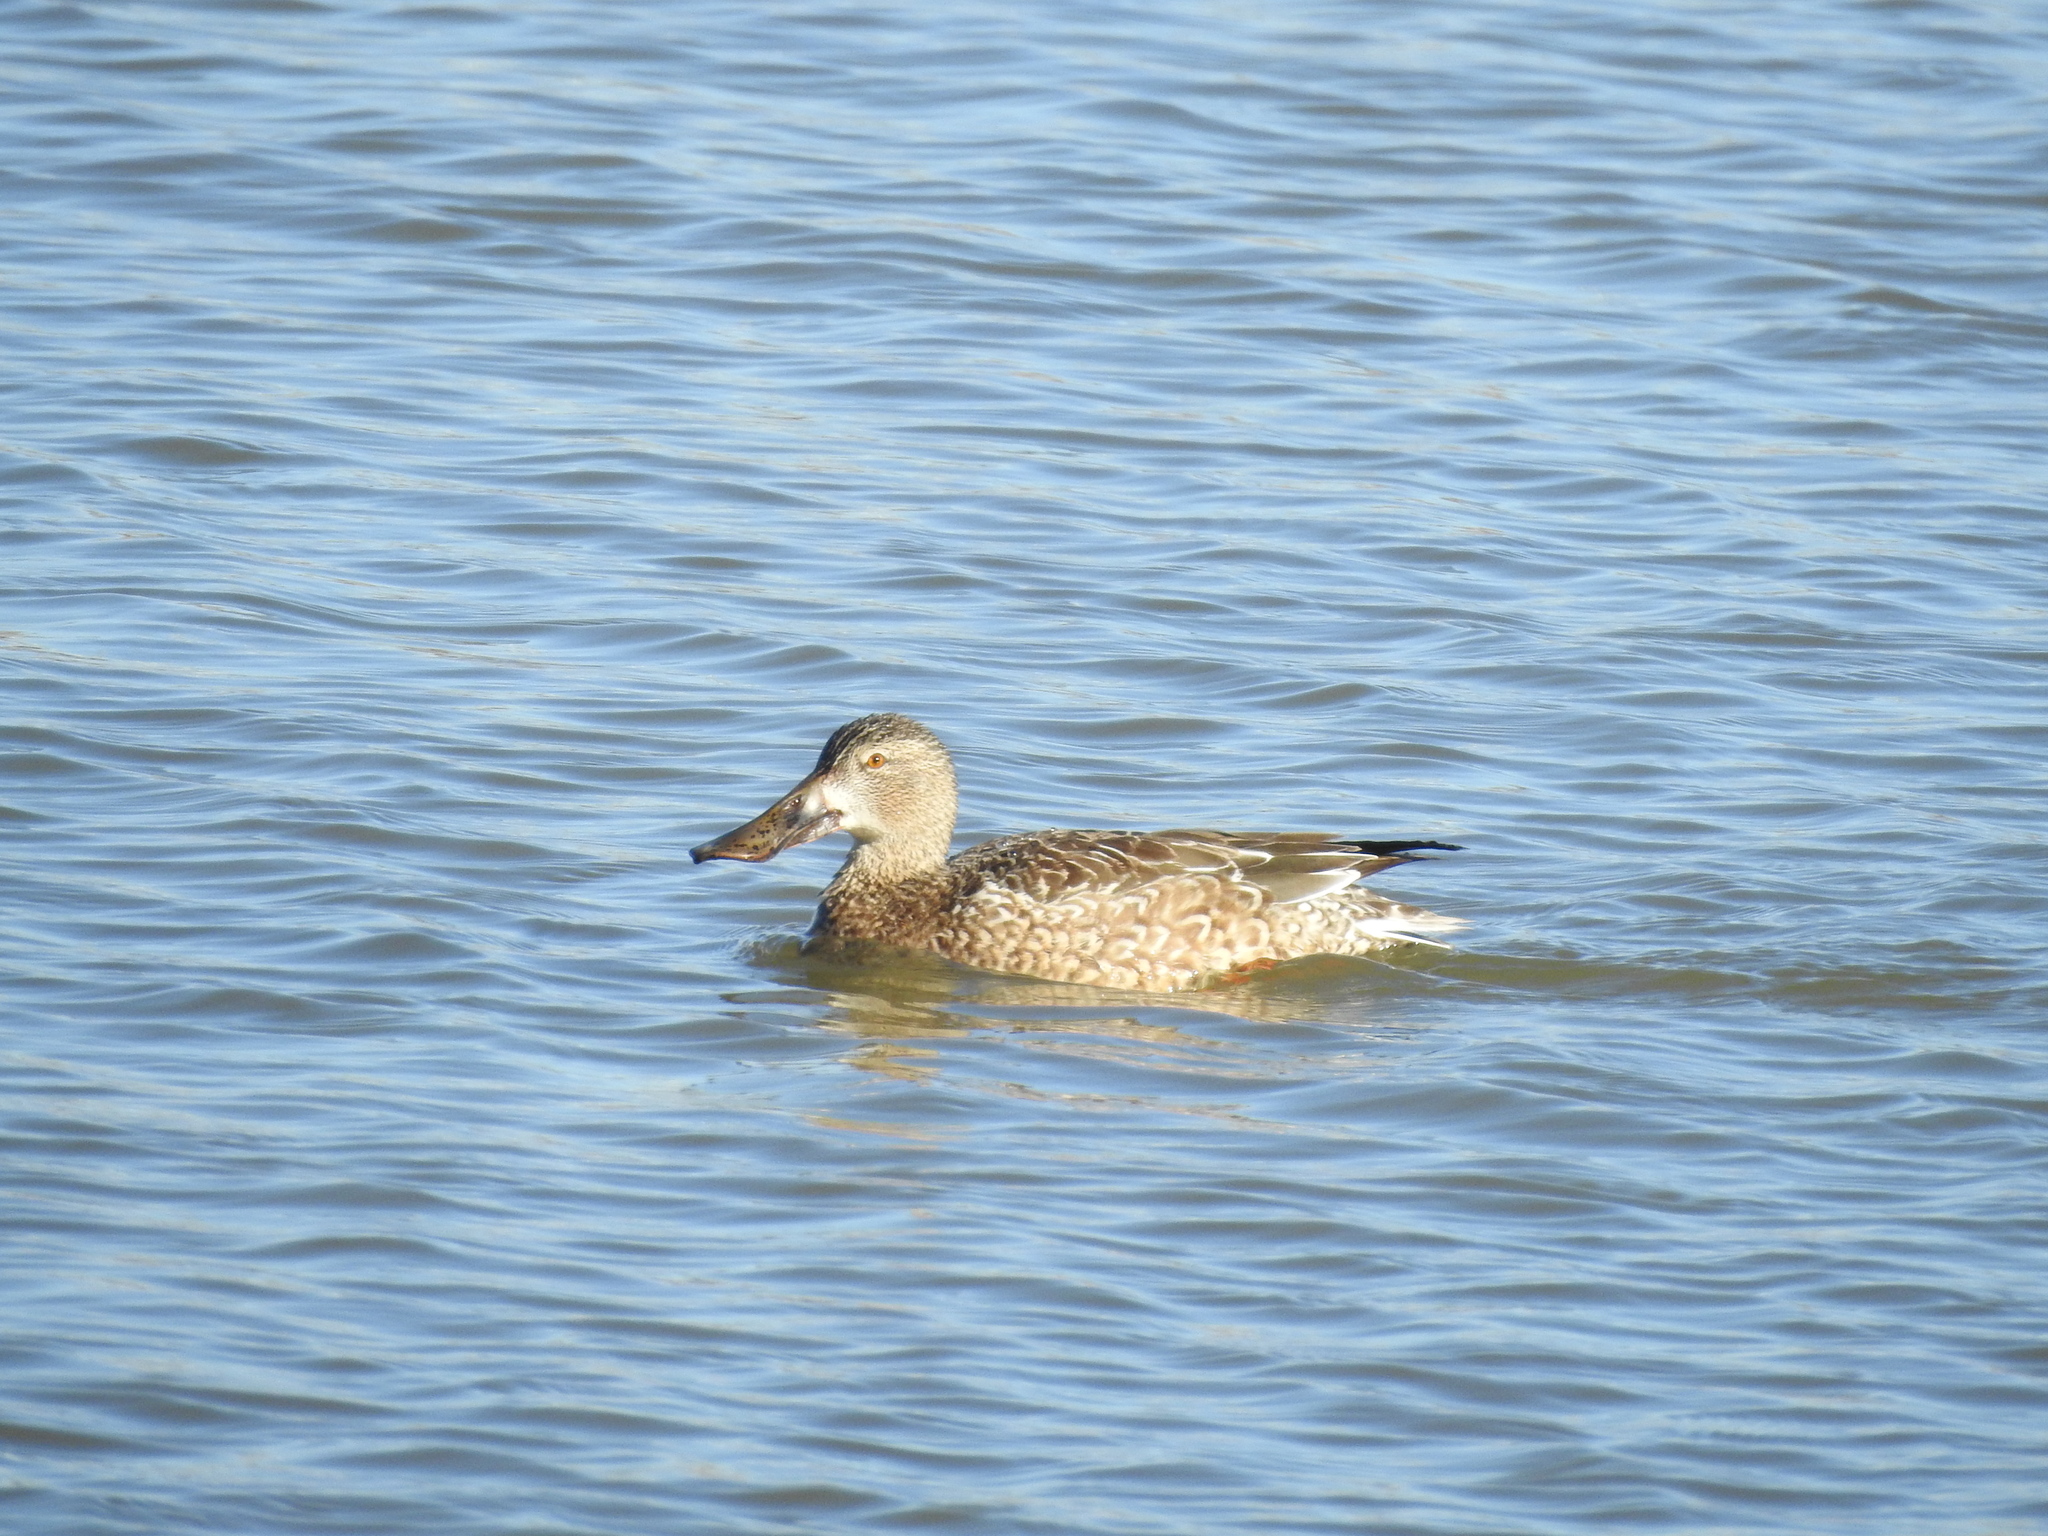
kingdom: Animalia
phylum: Chordata
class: Aves
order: Anseriformes
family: Anatidae
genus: Spatula
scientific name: Spatula clypeata
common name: Northern shoveler
